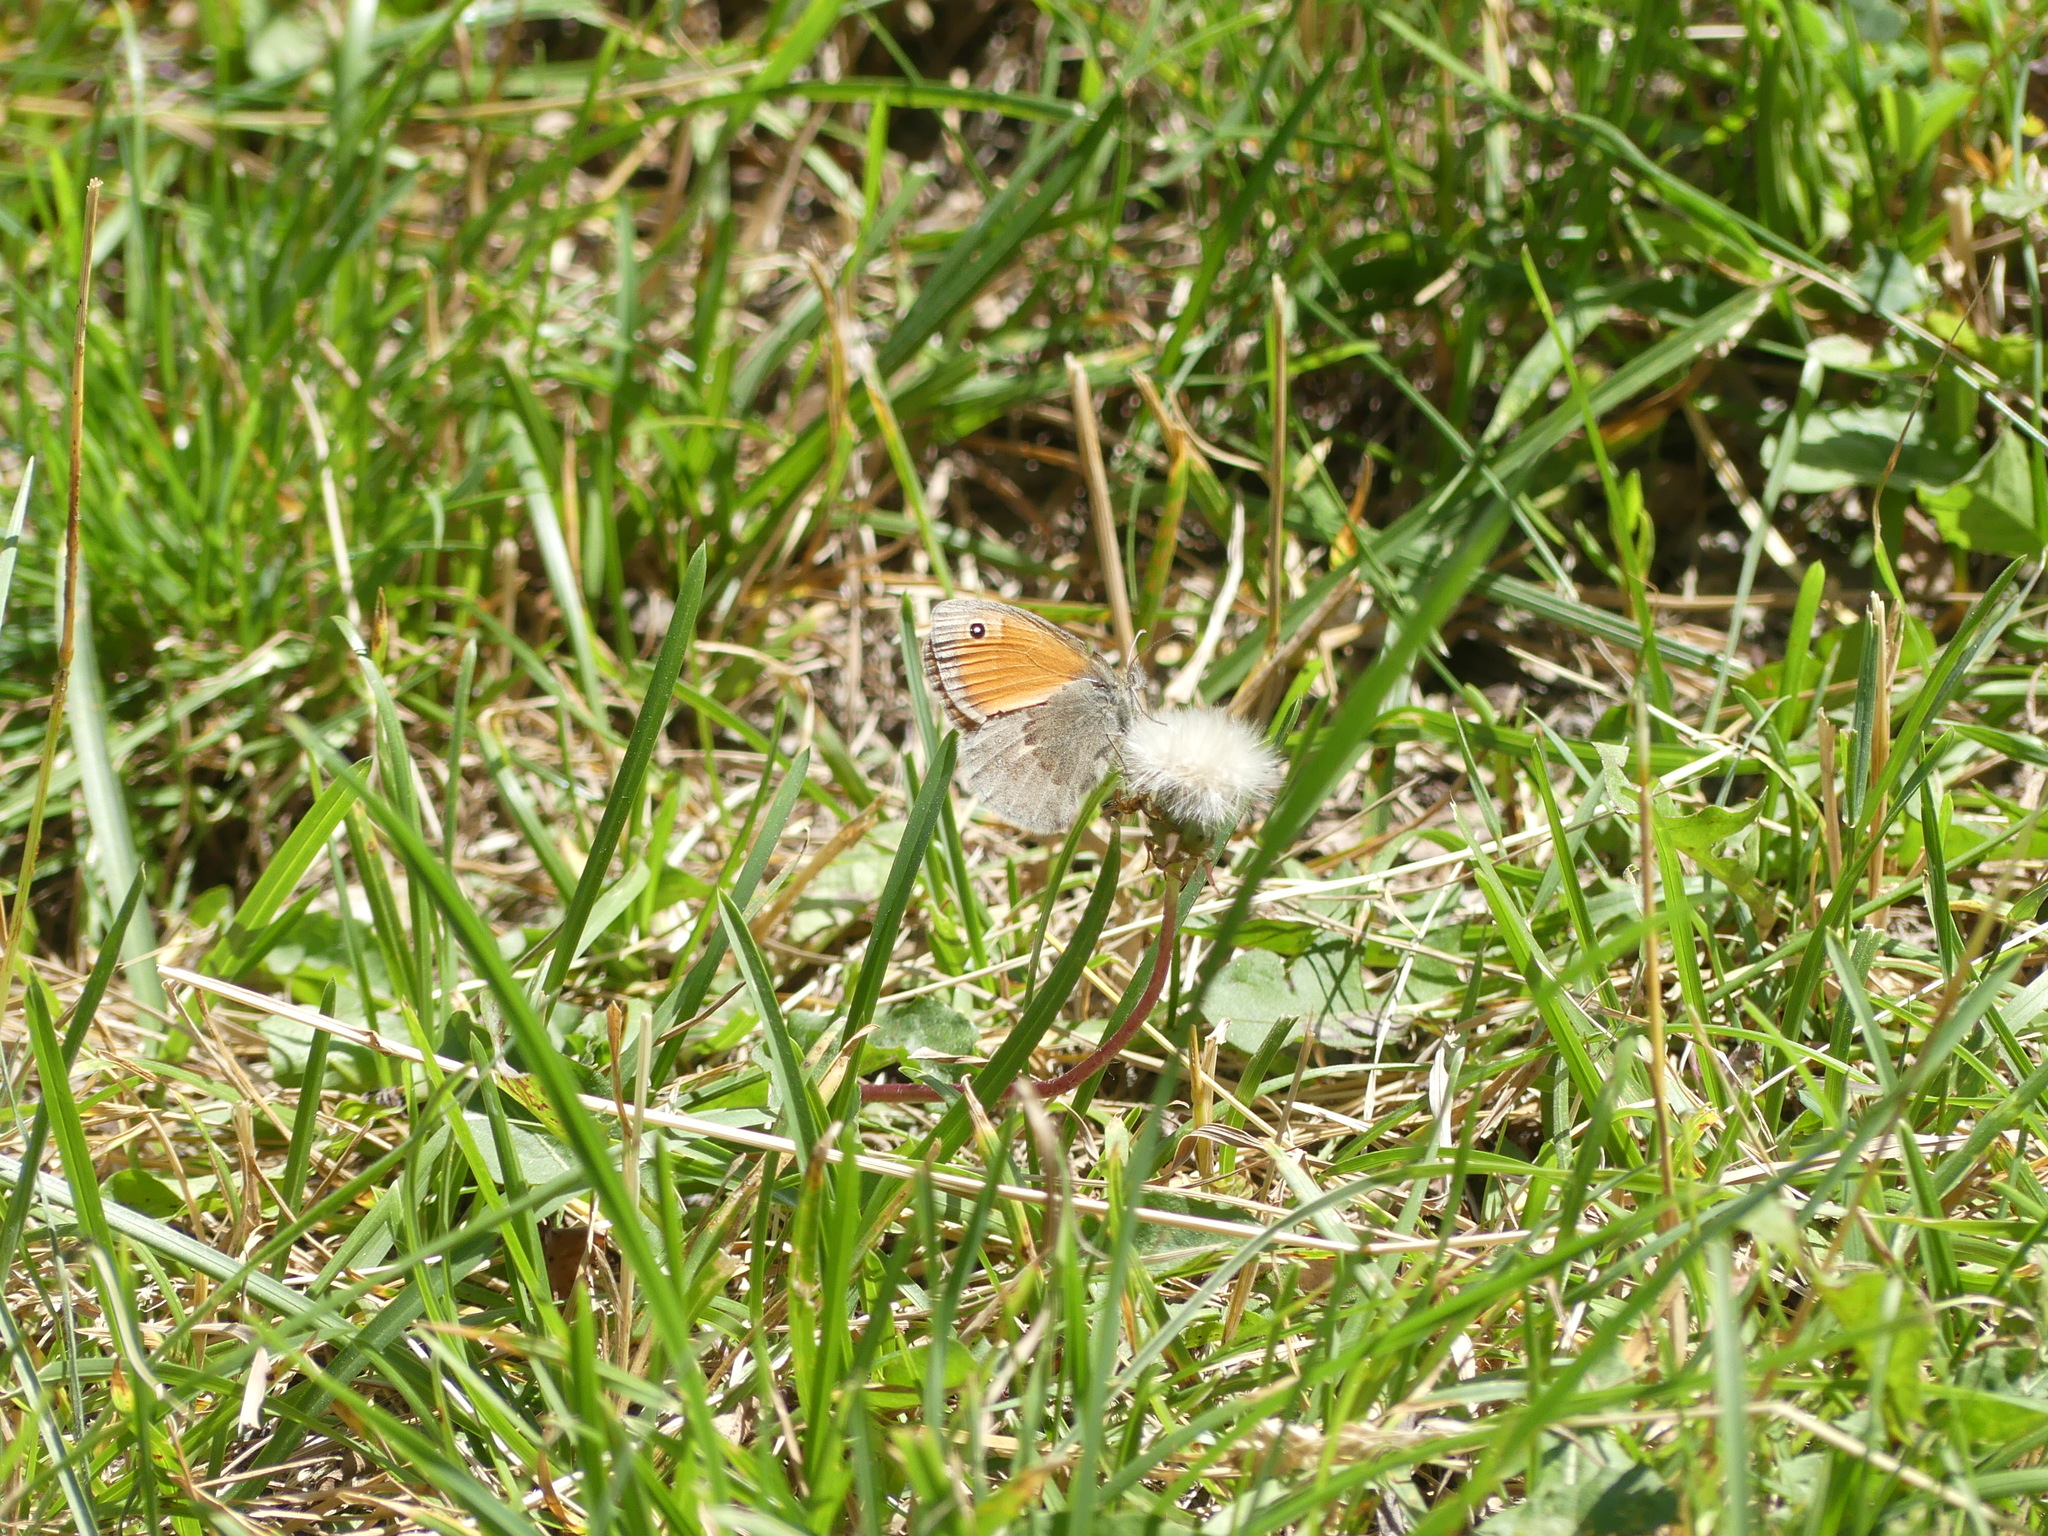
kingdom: Animalia
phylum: Arthropoda
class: Insecta
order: Lepidoptera
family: Nymphalidae
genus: Coenonympha
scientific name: Coenonympha pamphilus
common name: Small heath
